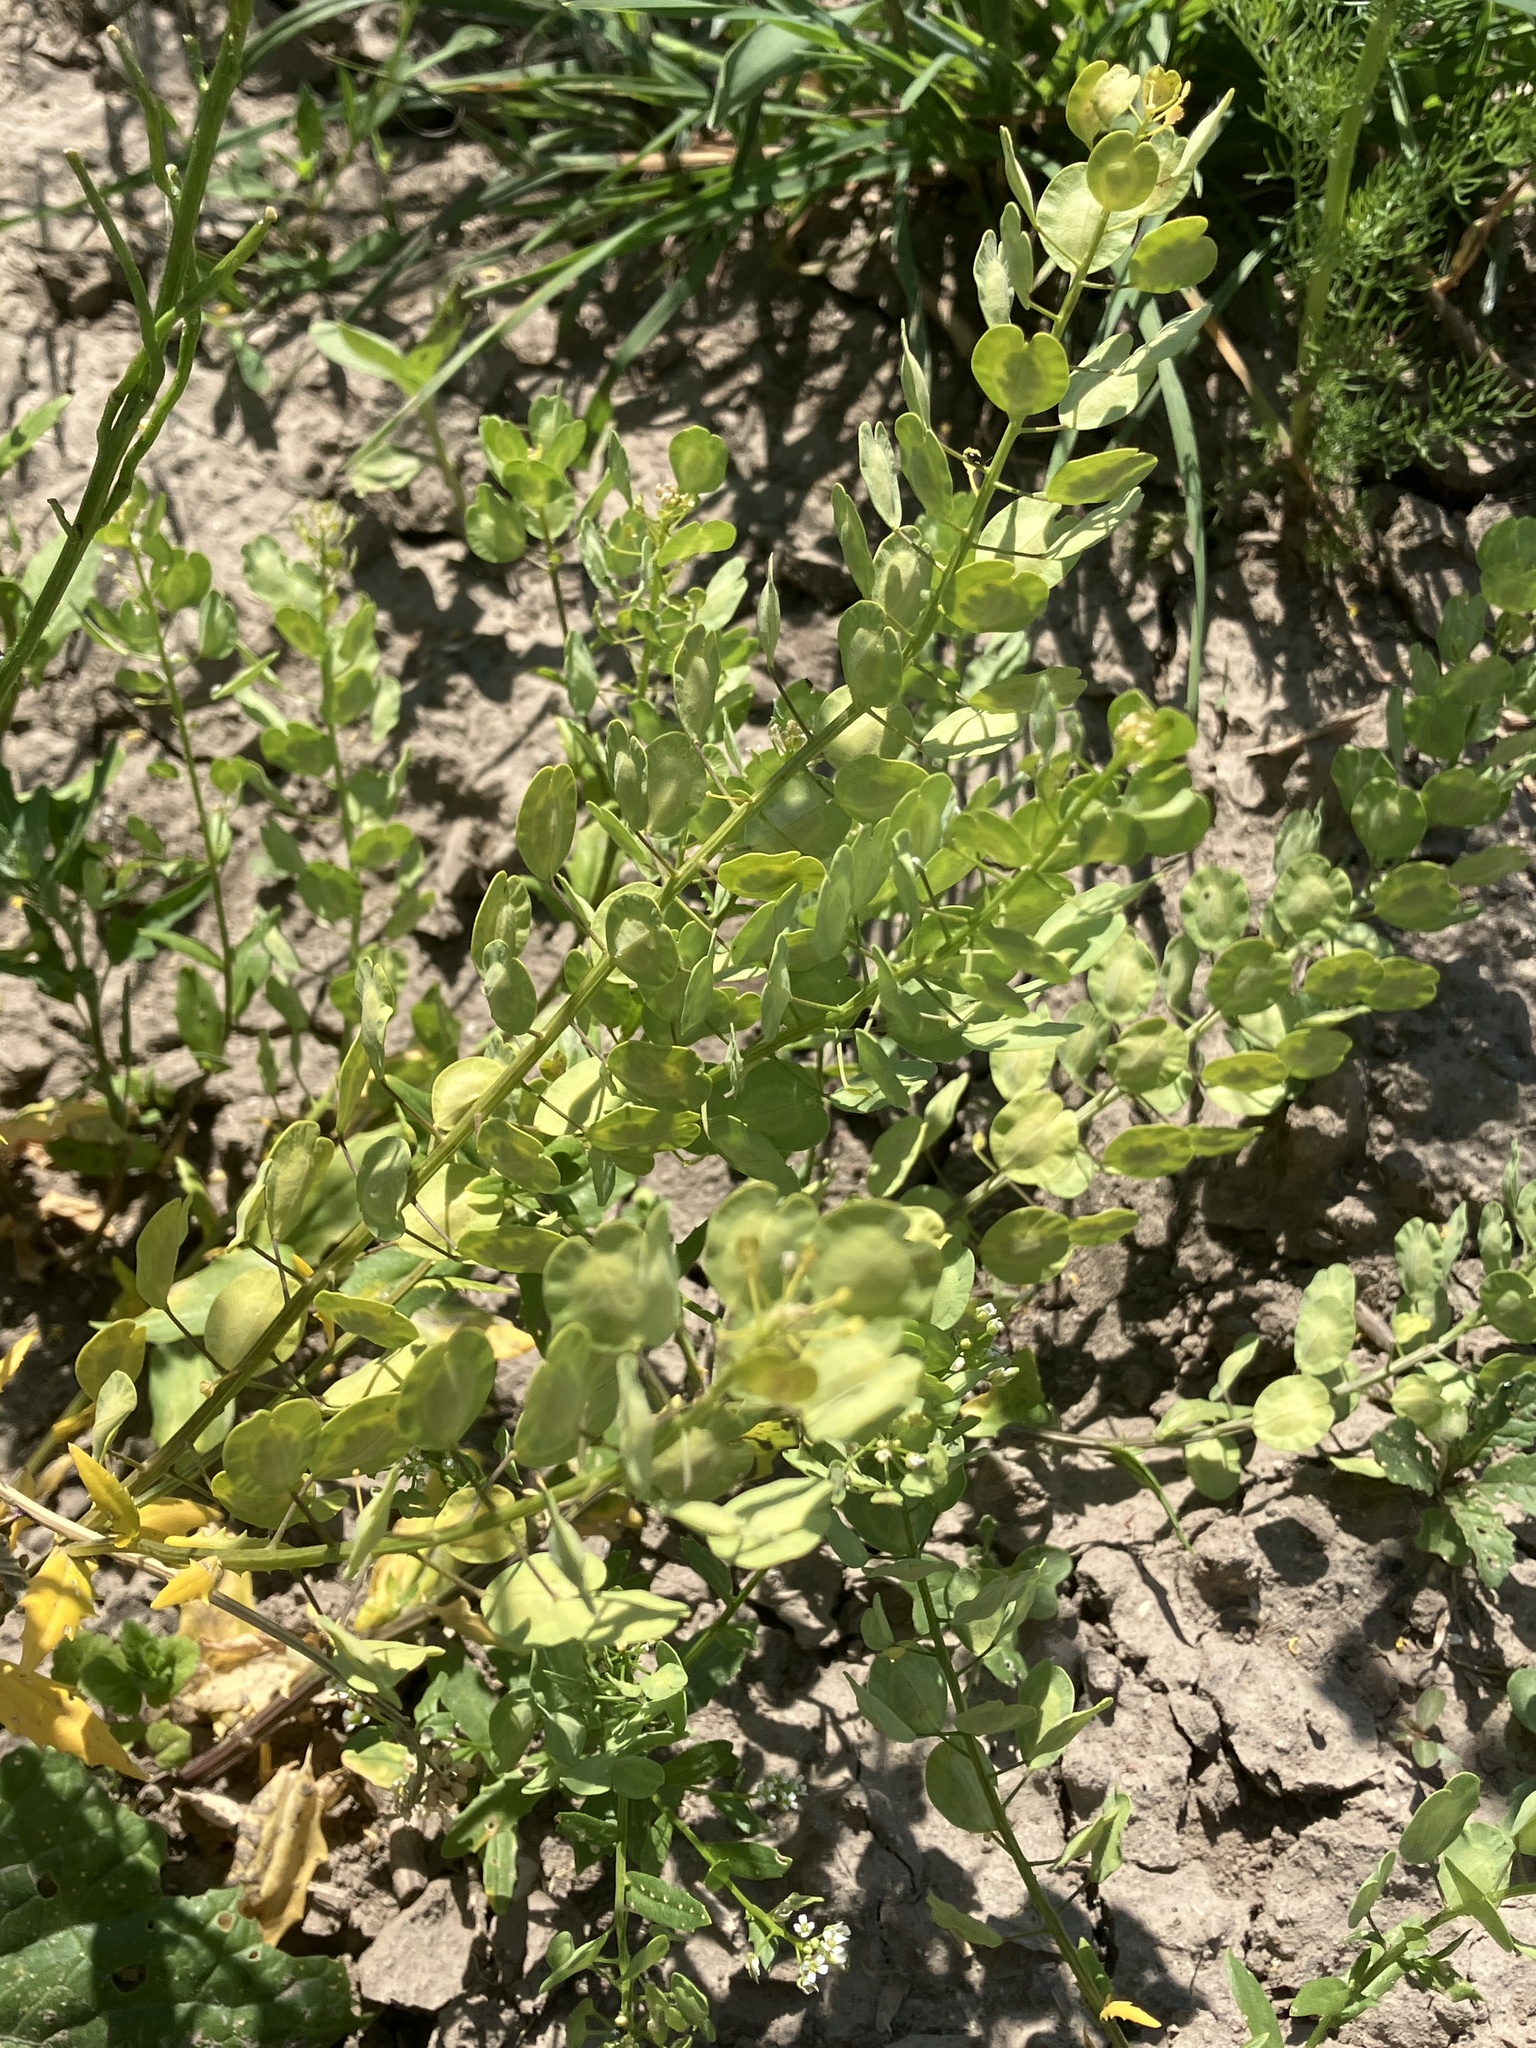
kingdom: Plantae
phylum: Tracheophyta
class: Magnoliopsida
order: Brassicales
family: Brassicaceae
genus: Thlaspi
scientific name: Thlaspi arvense
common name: Field pennycress
